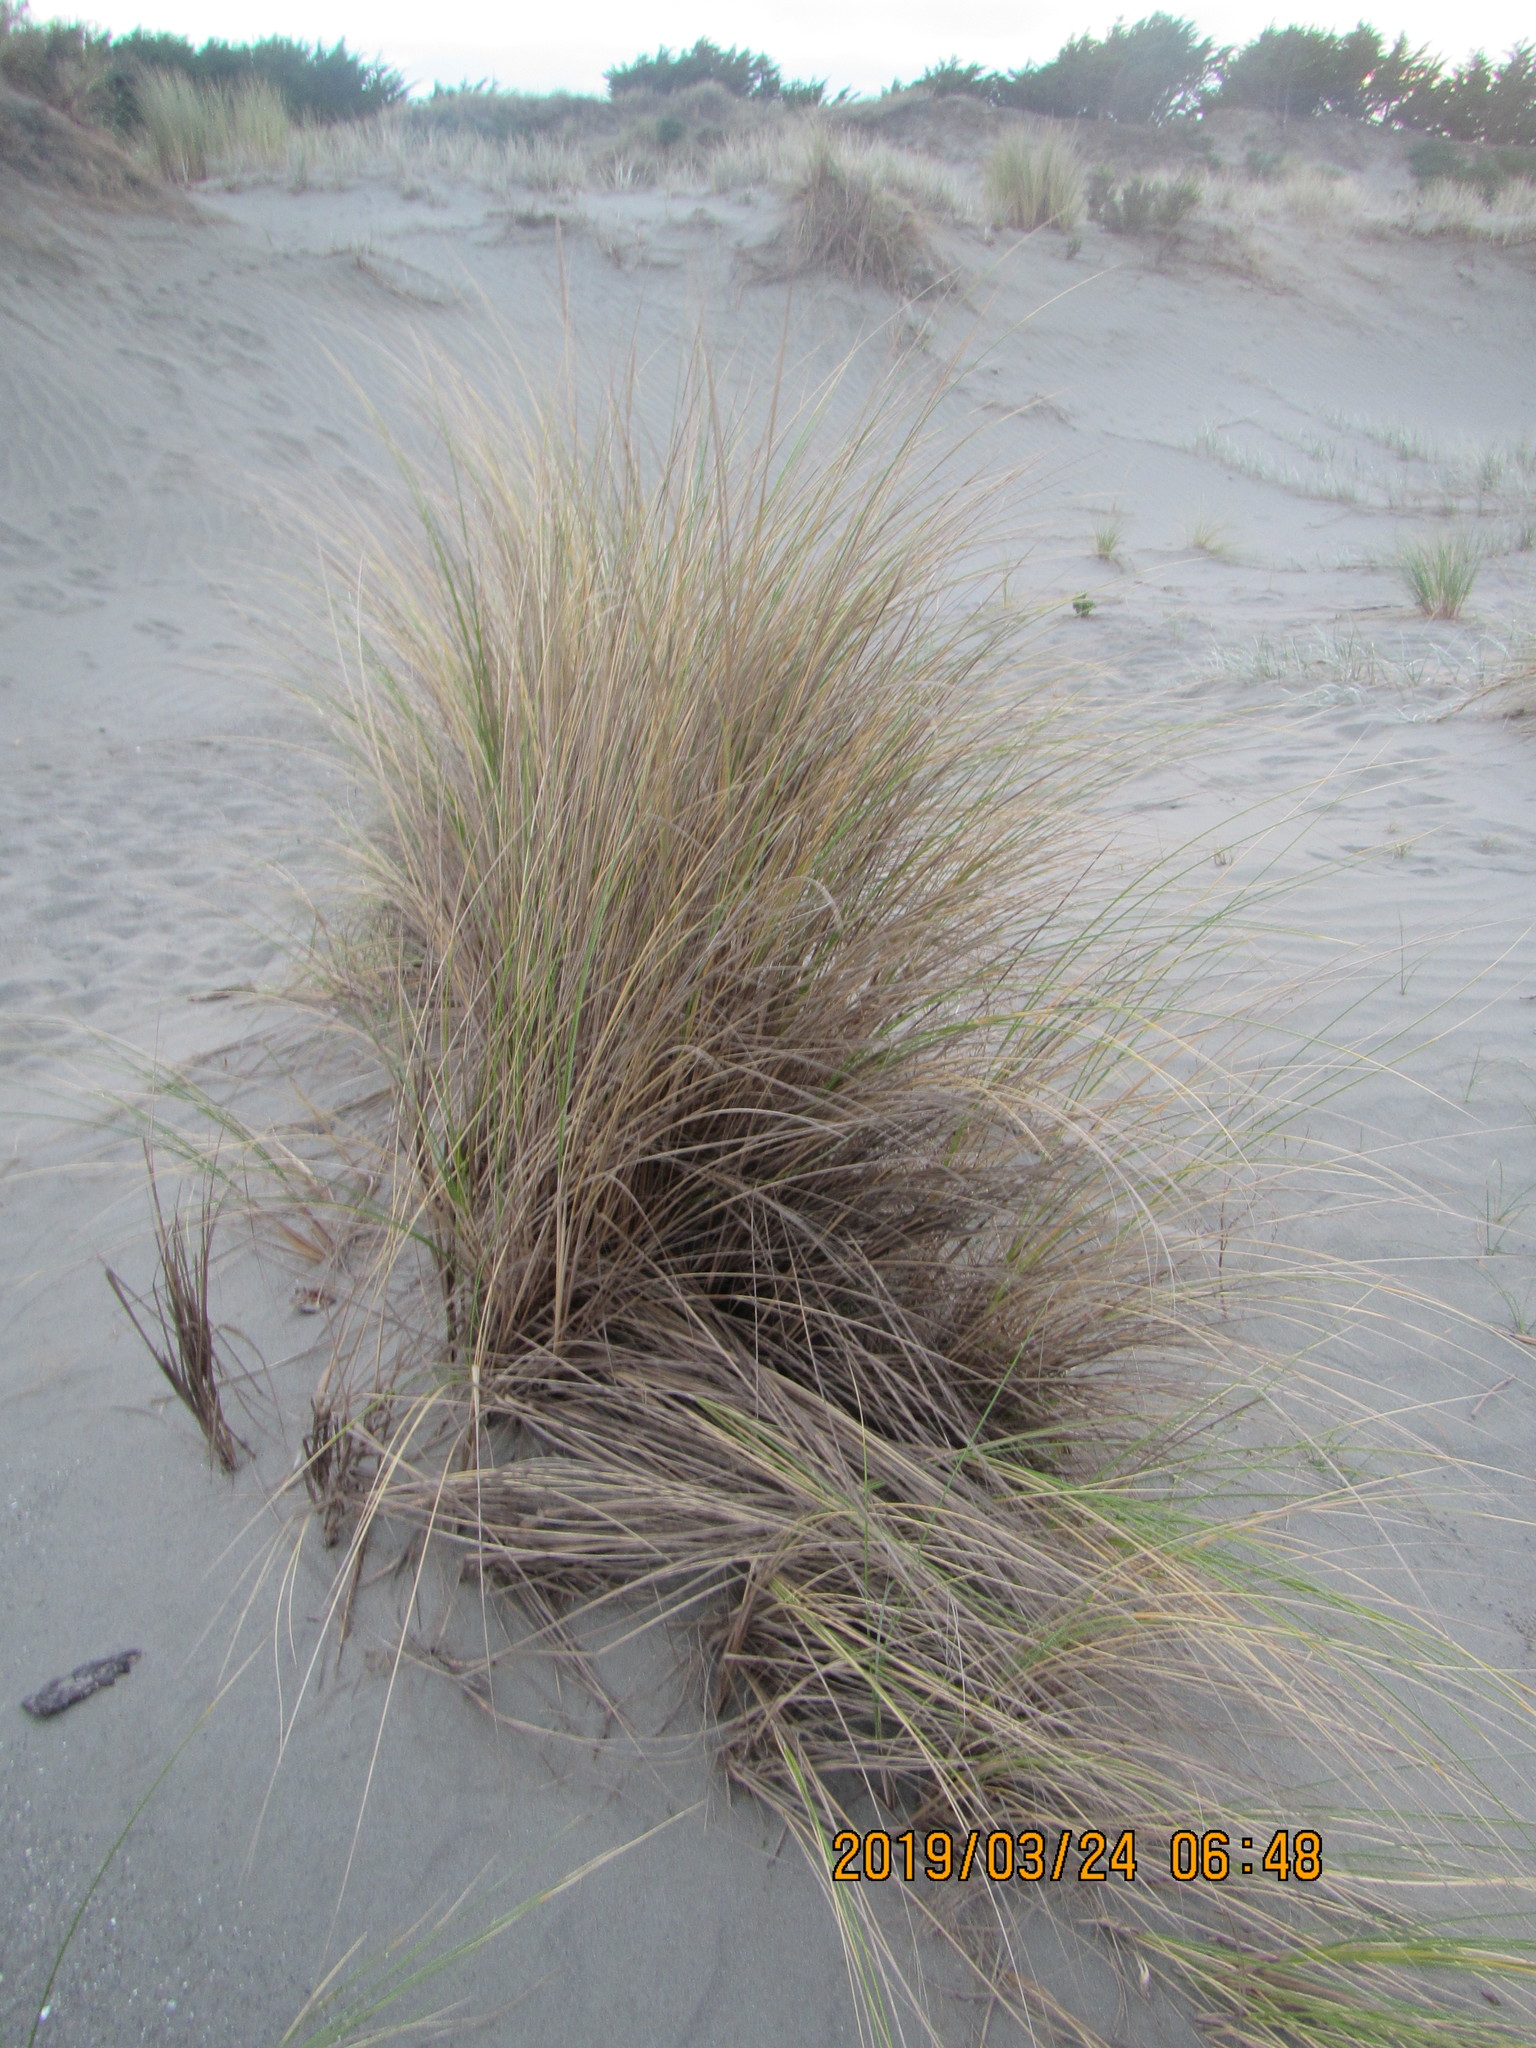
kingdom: Plantae
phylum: Tracheophyta
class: Liliopsida
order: Poales
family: Poaceae
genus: Calamagrostis
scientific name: Calamagrostis arenaria
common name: European beachgrass
